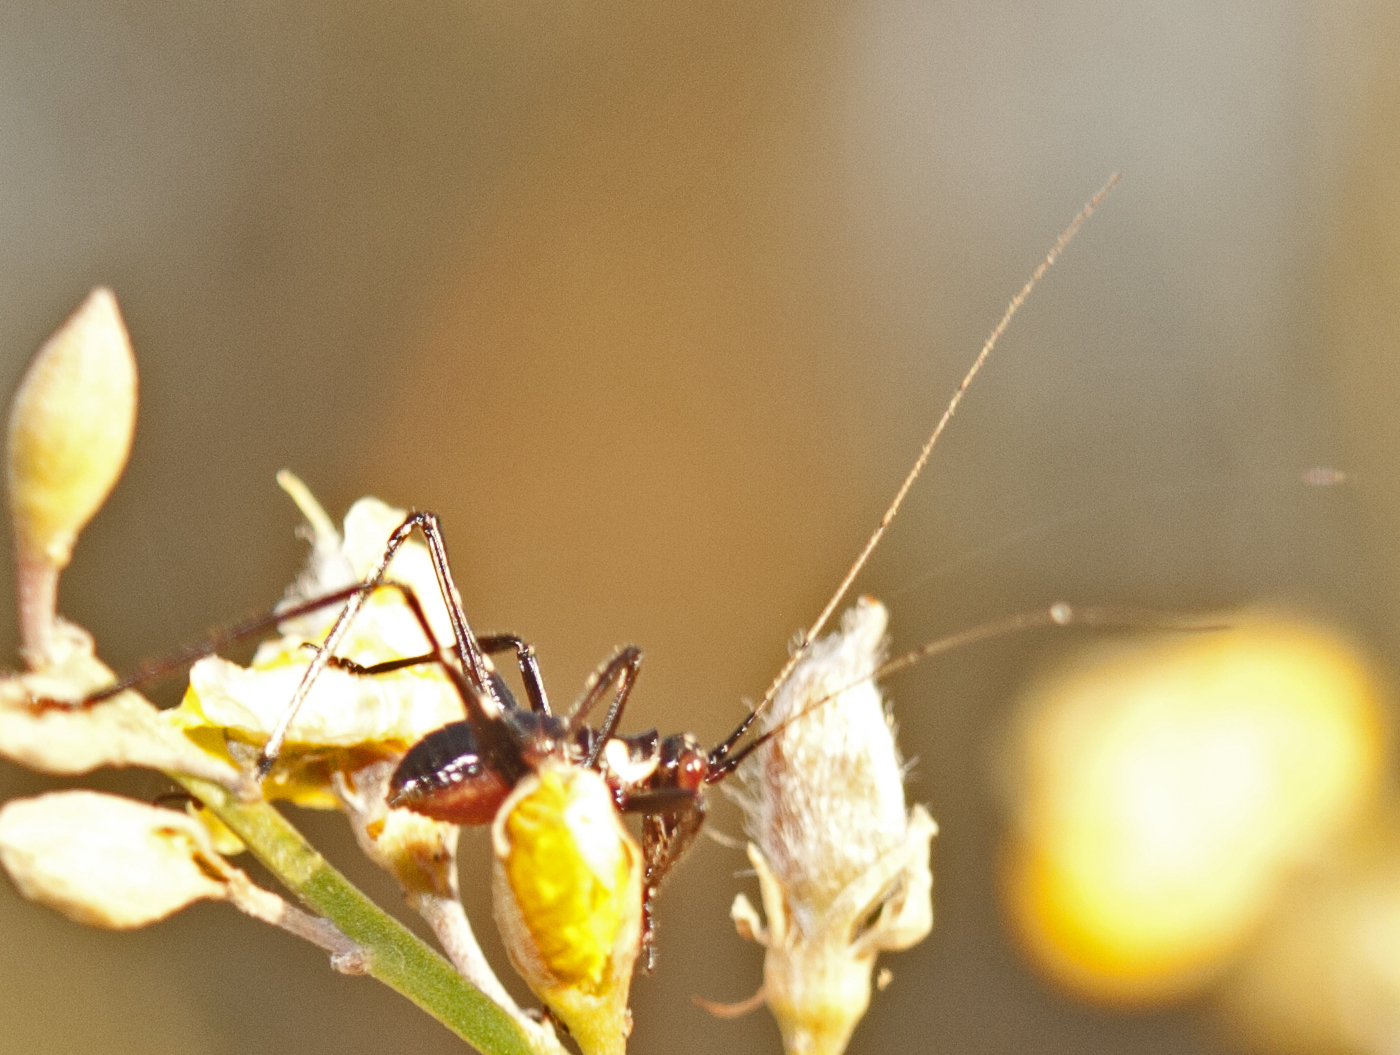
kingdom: Animalia
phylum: Arthropoda
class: Insecta
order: Orthoptera
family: Tettigoniidae
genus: Ephippitytha
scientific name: Ephippitytha trigintiduoguttata
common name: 32-spotted katydid
